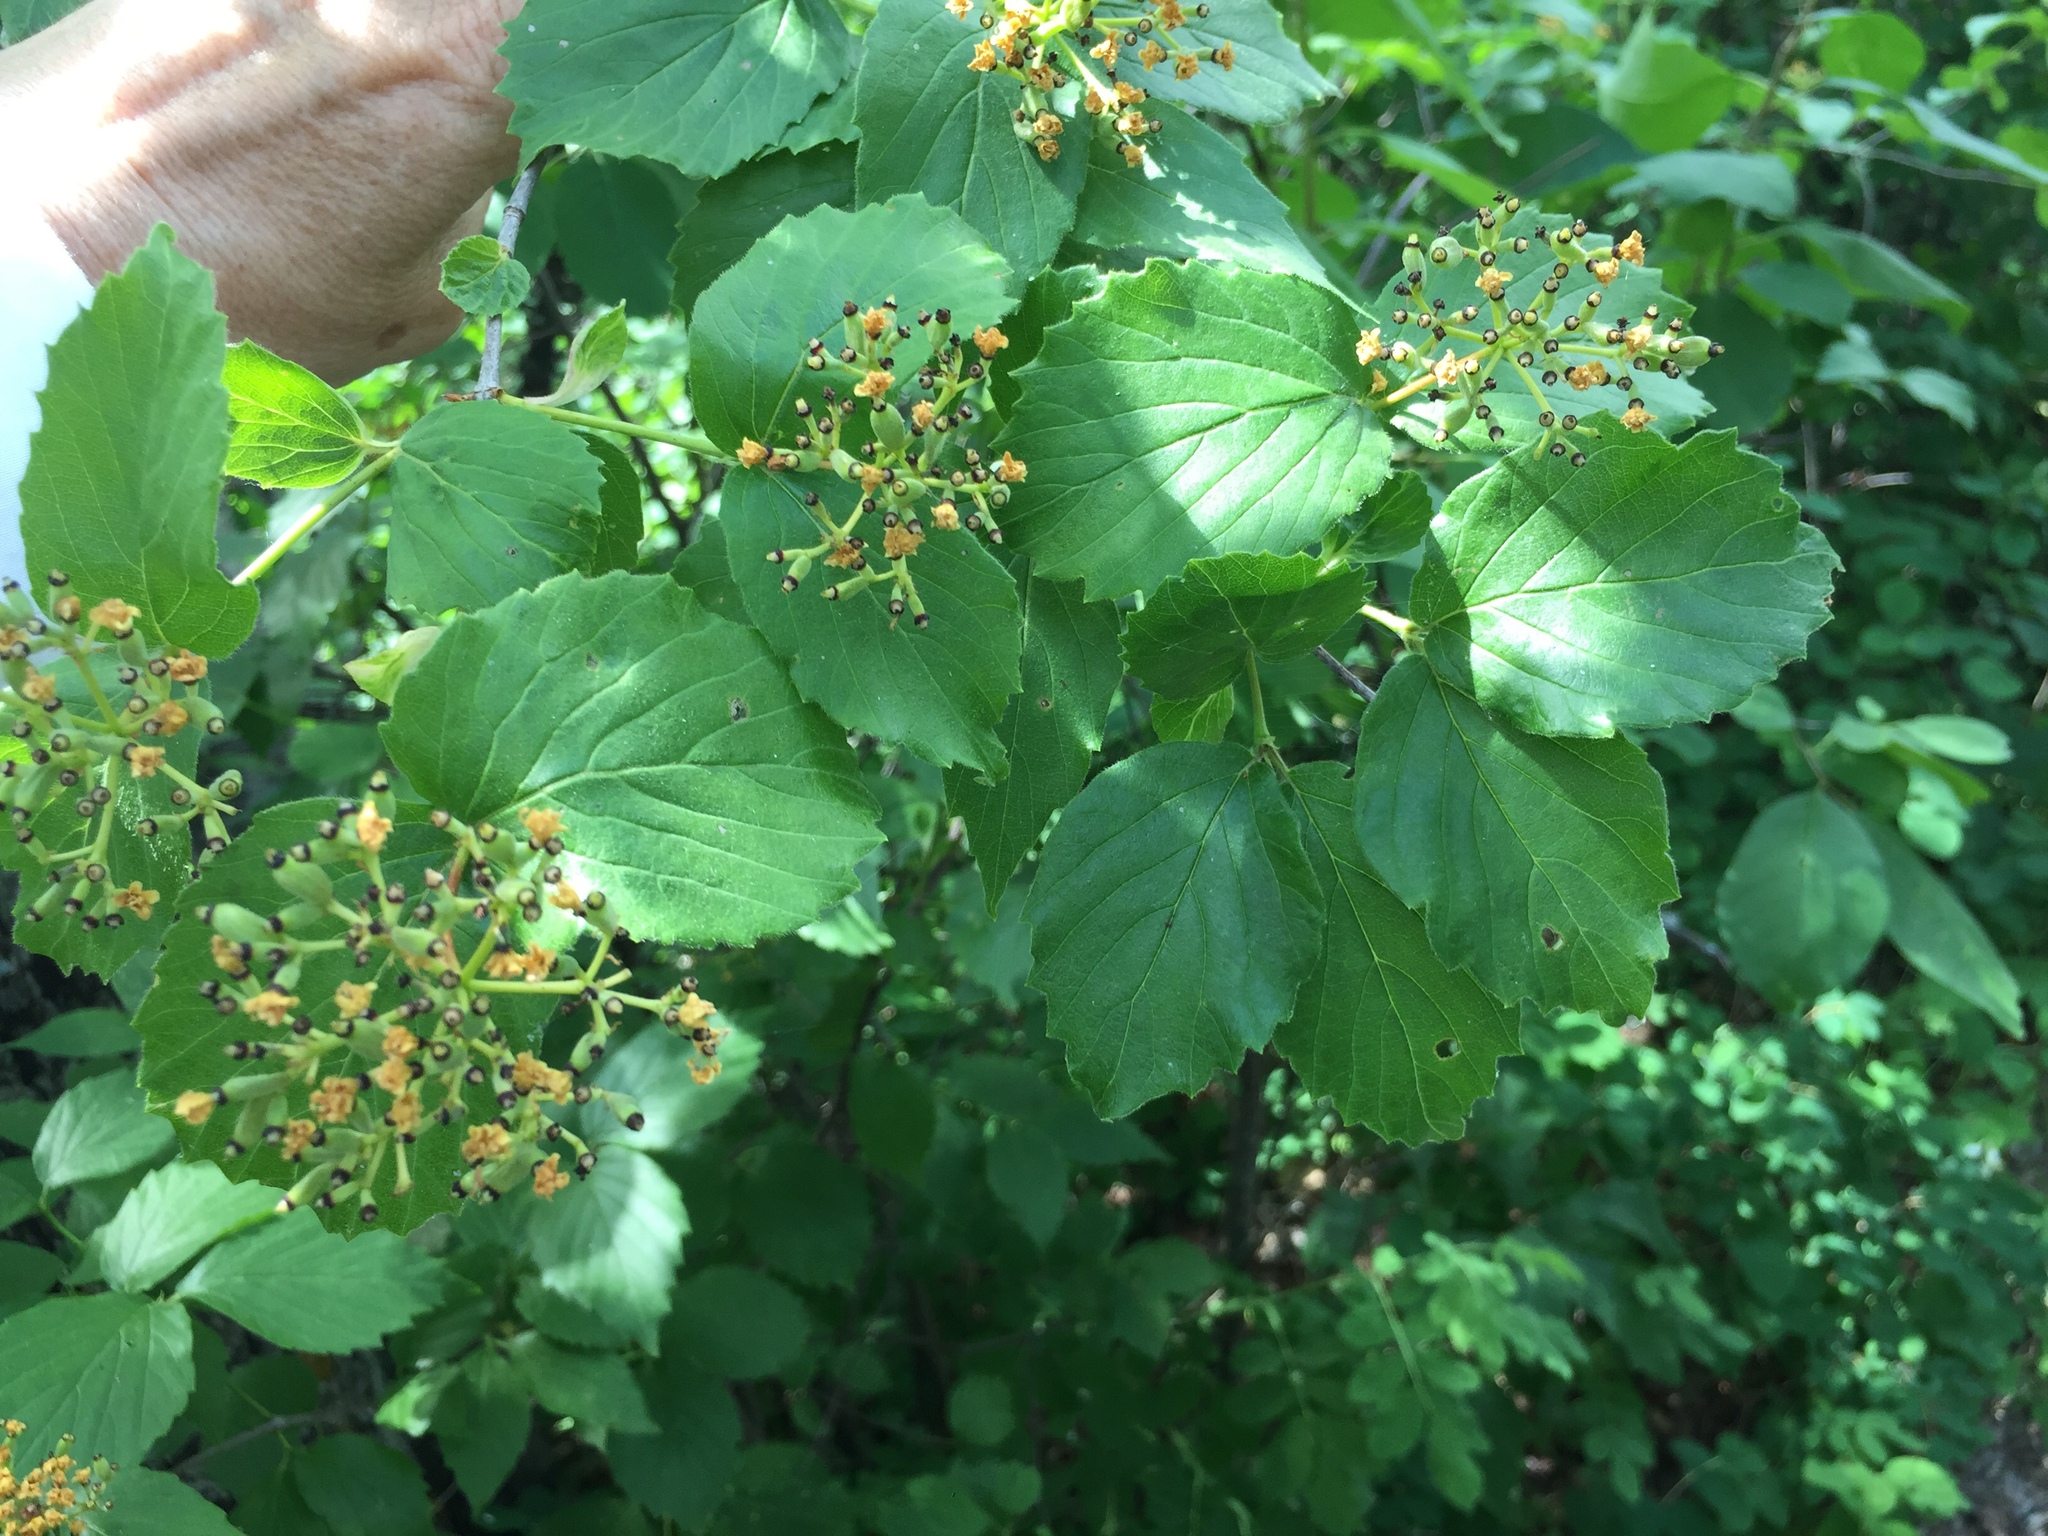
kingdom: Plantae
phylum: Tracheophyta
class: Magnoliopsida
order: Dipsacales
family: Viburnaceae
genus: Viburnum
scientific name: Viburnum rafinesqueanum
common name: Downy arrow-wood
